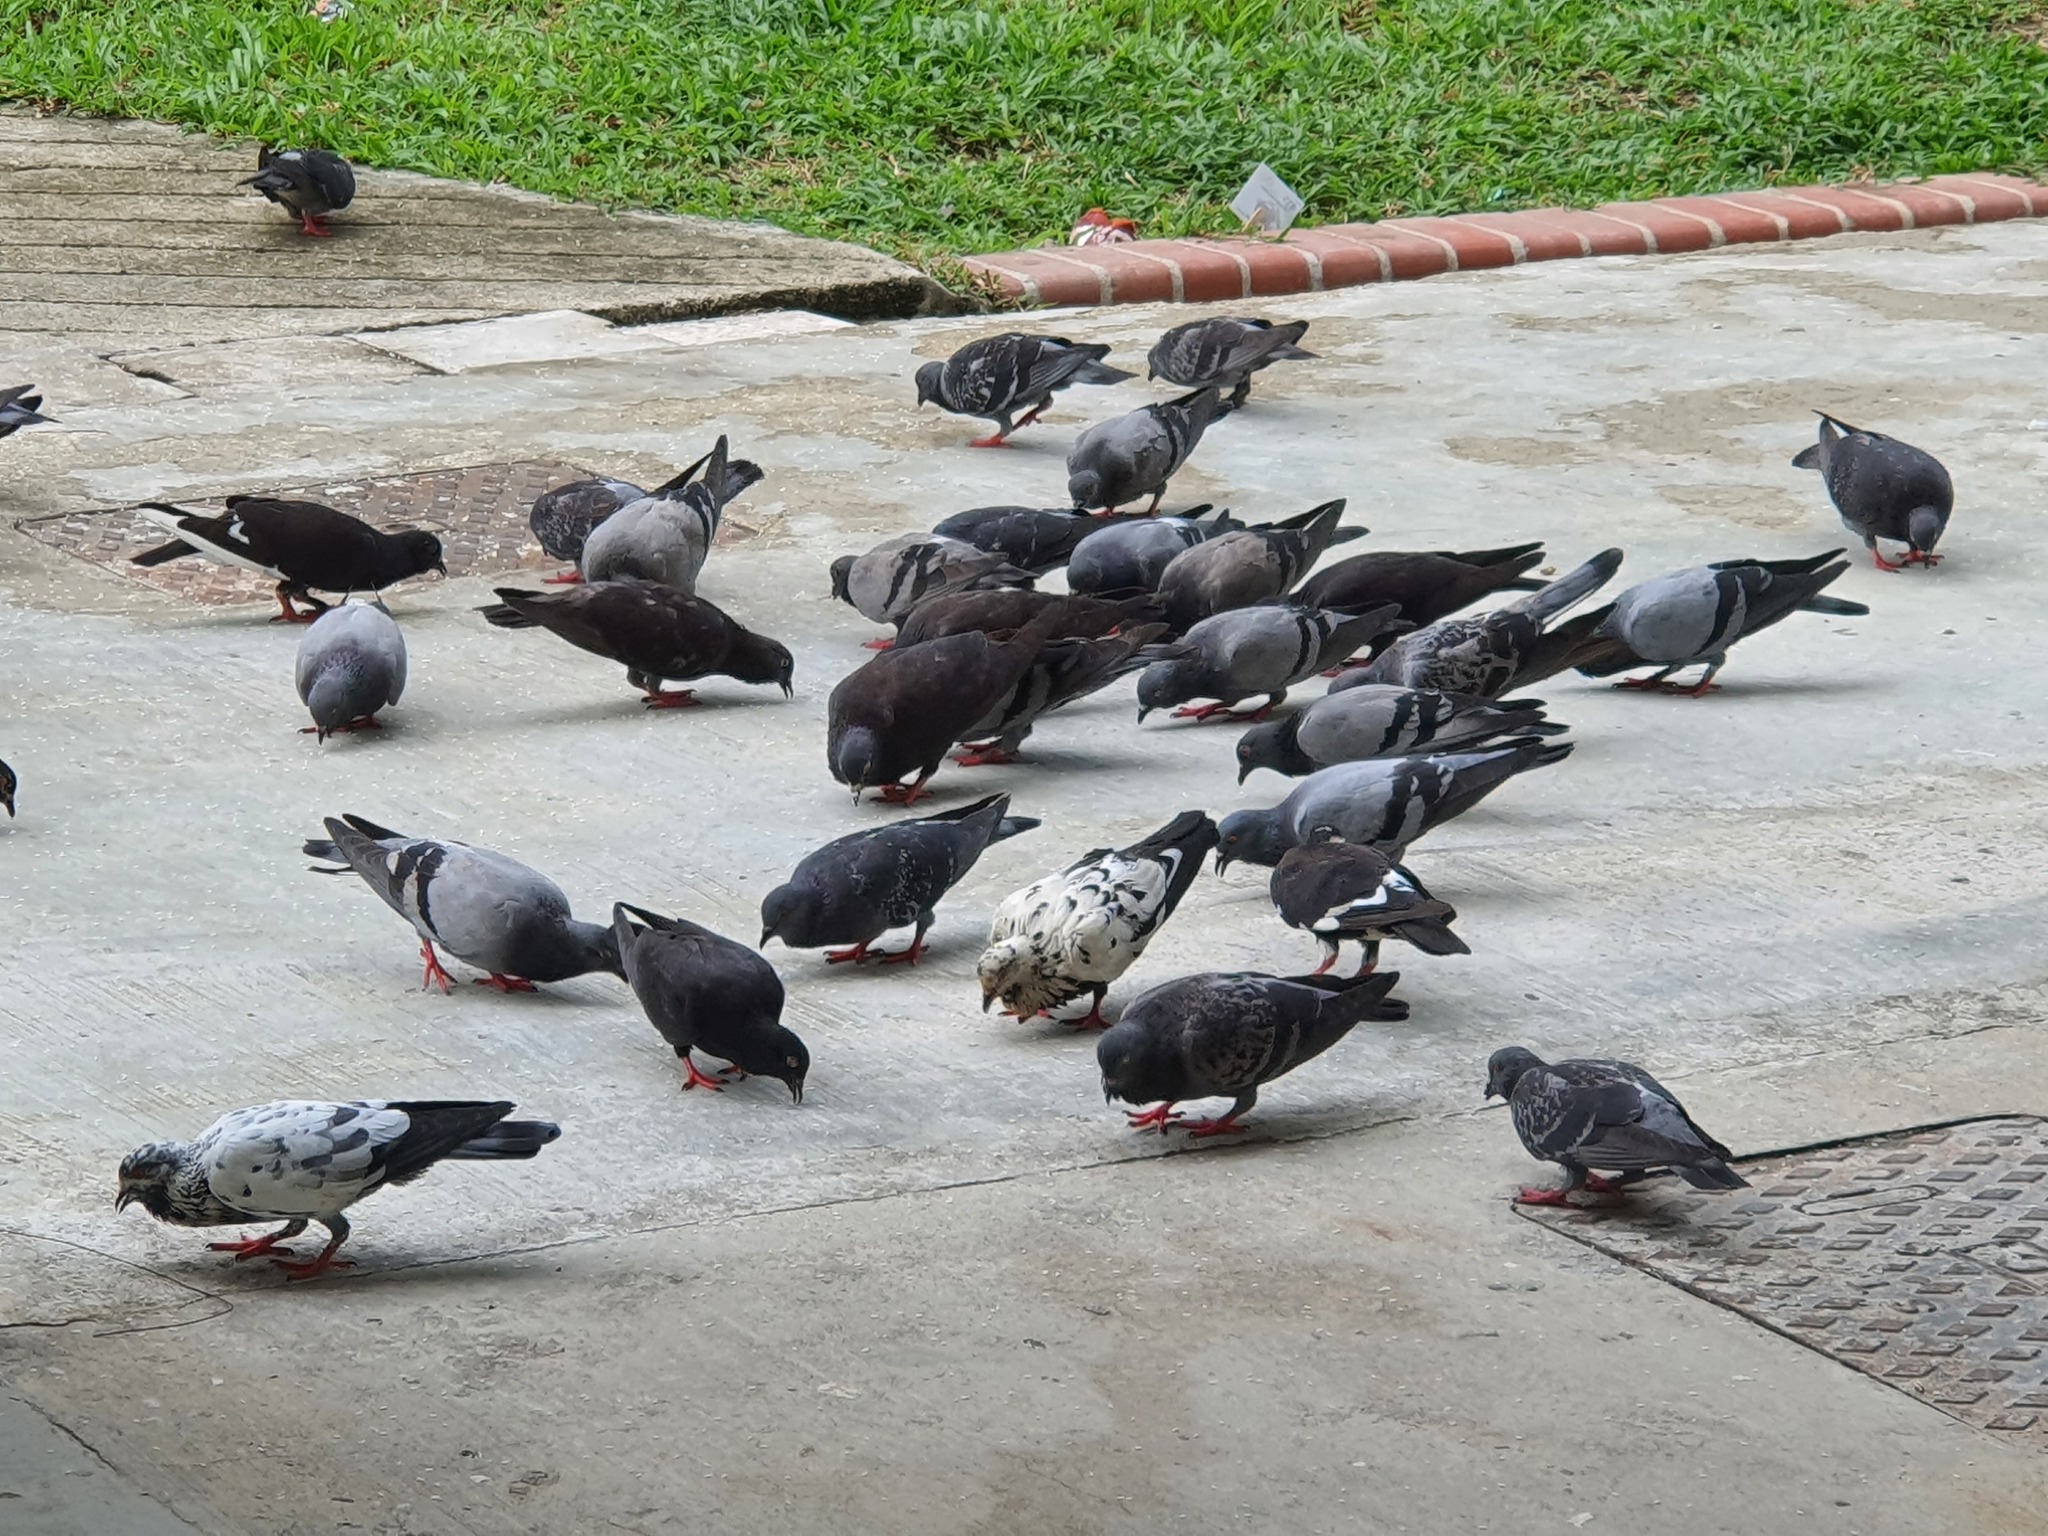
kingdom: Animalia
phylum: Chordata
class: Aves
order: Columbiformes
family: Columbidae
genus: Columba
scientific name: Columba livia
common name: Rock pigeon
